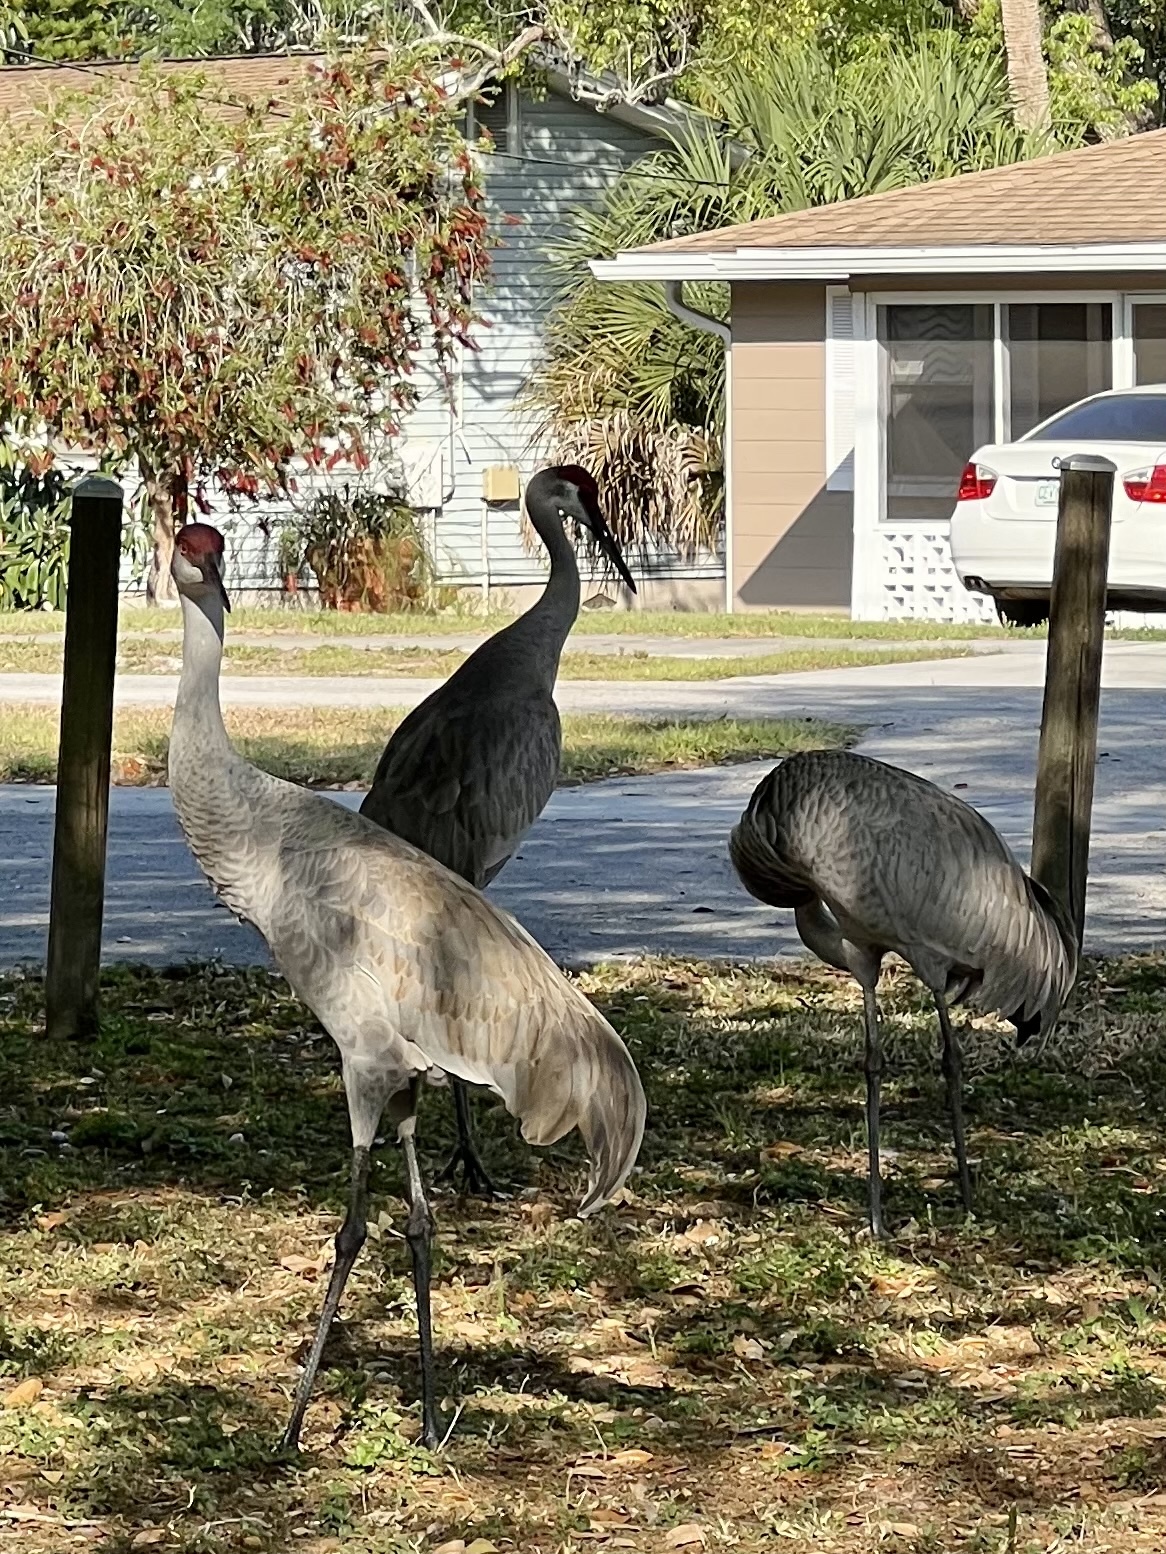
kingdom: Animalia
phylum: Chordata
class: Aves
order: Gruiformes
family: Gruidae
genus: Grus
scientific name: Grus canadensis
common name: Sandhill crane
